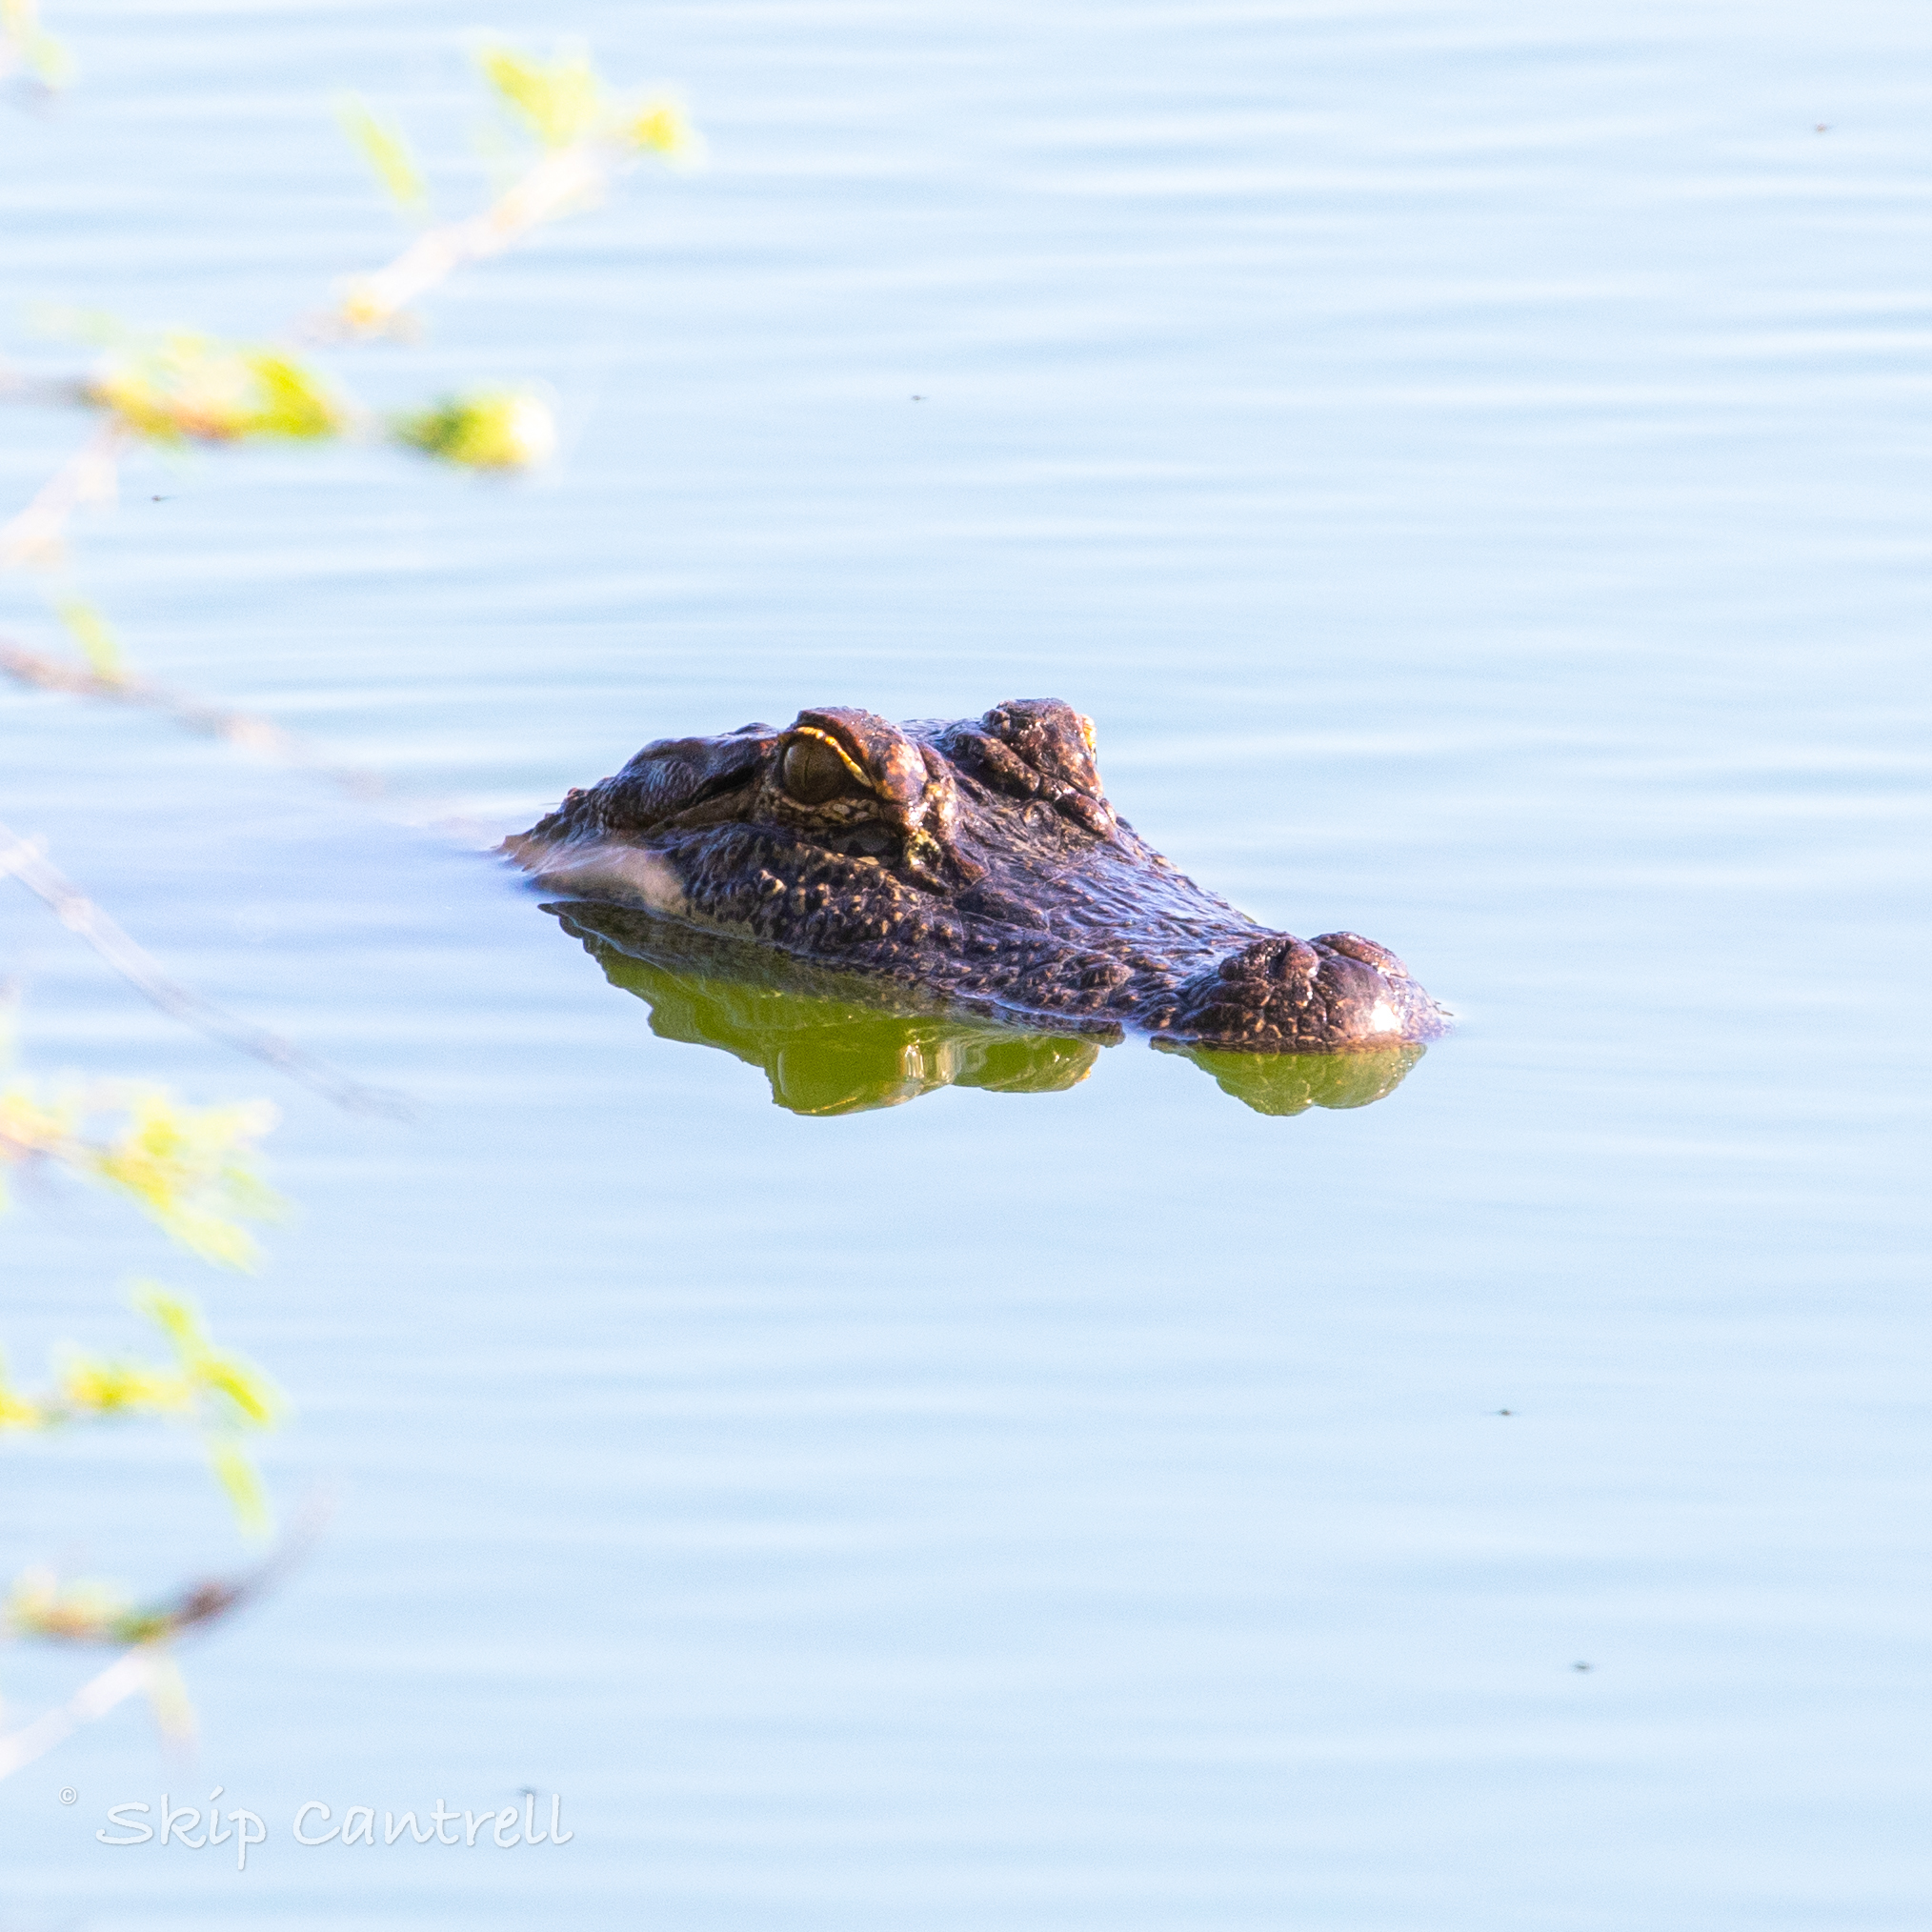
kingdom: Animalia
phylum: Chordata
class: Crocodylia
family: Alligatoridae
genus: Alligator
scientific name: Alligator mississippiensis
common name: American alligator
